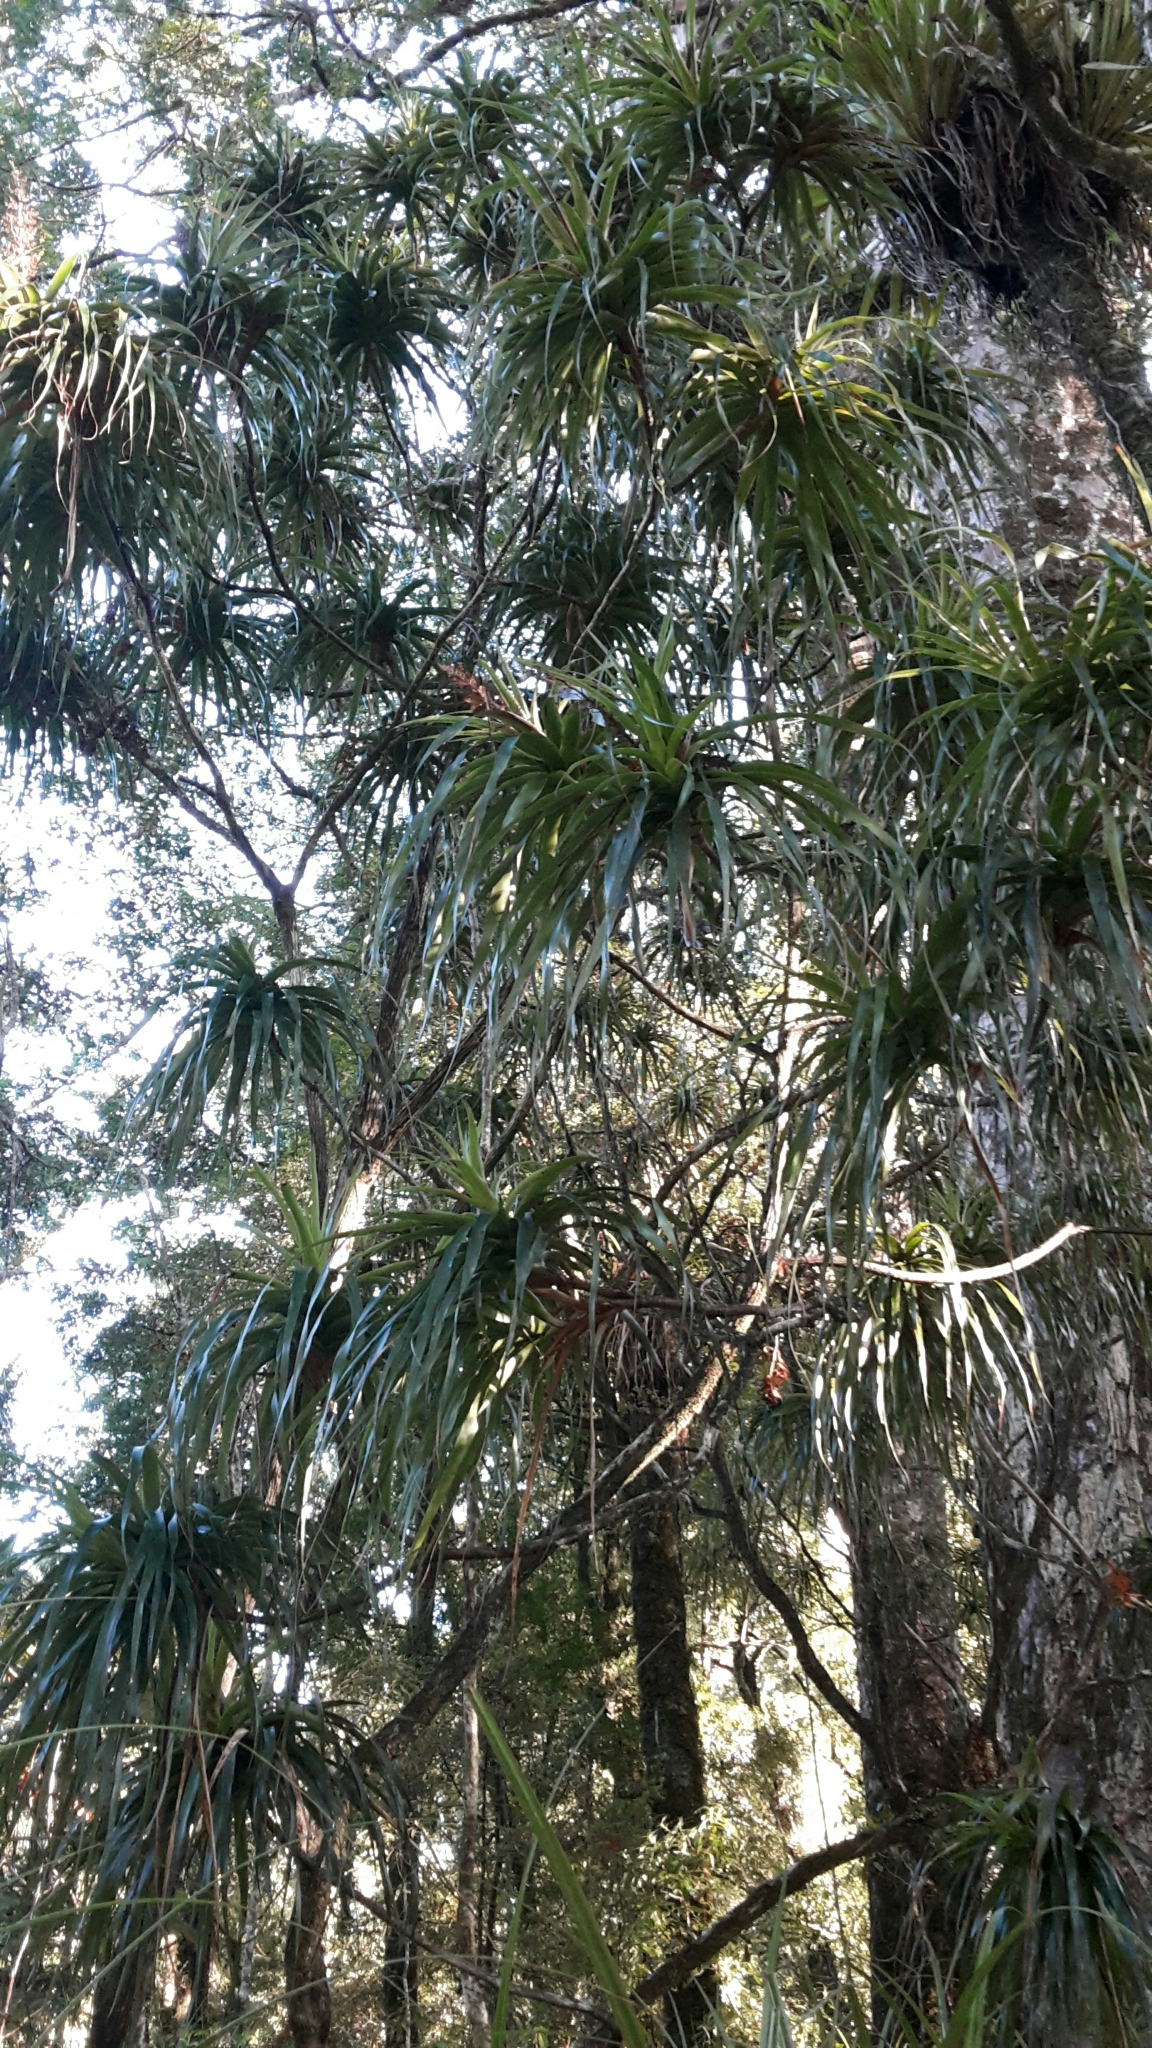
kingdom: Plantae
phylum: Tracheophyta
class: Magnoliopsida
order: Ericales
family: Ericaceae
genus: Dracophyllum
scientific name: Dracophyllum latifolium
